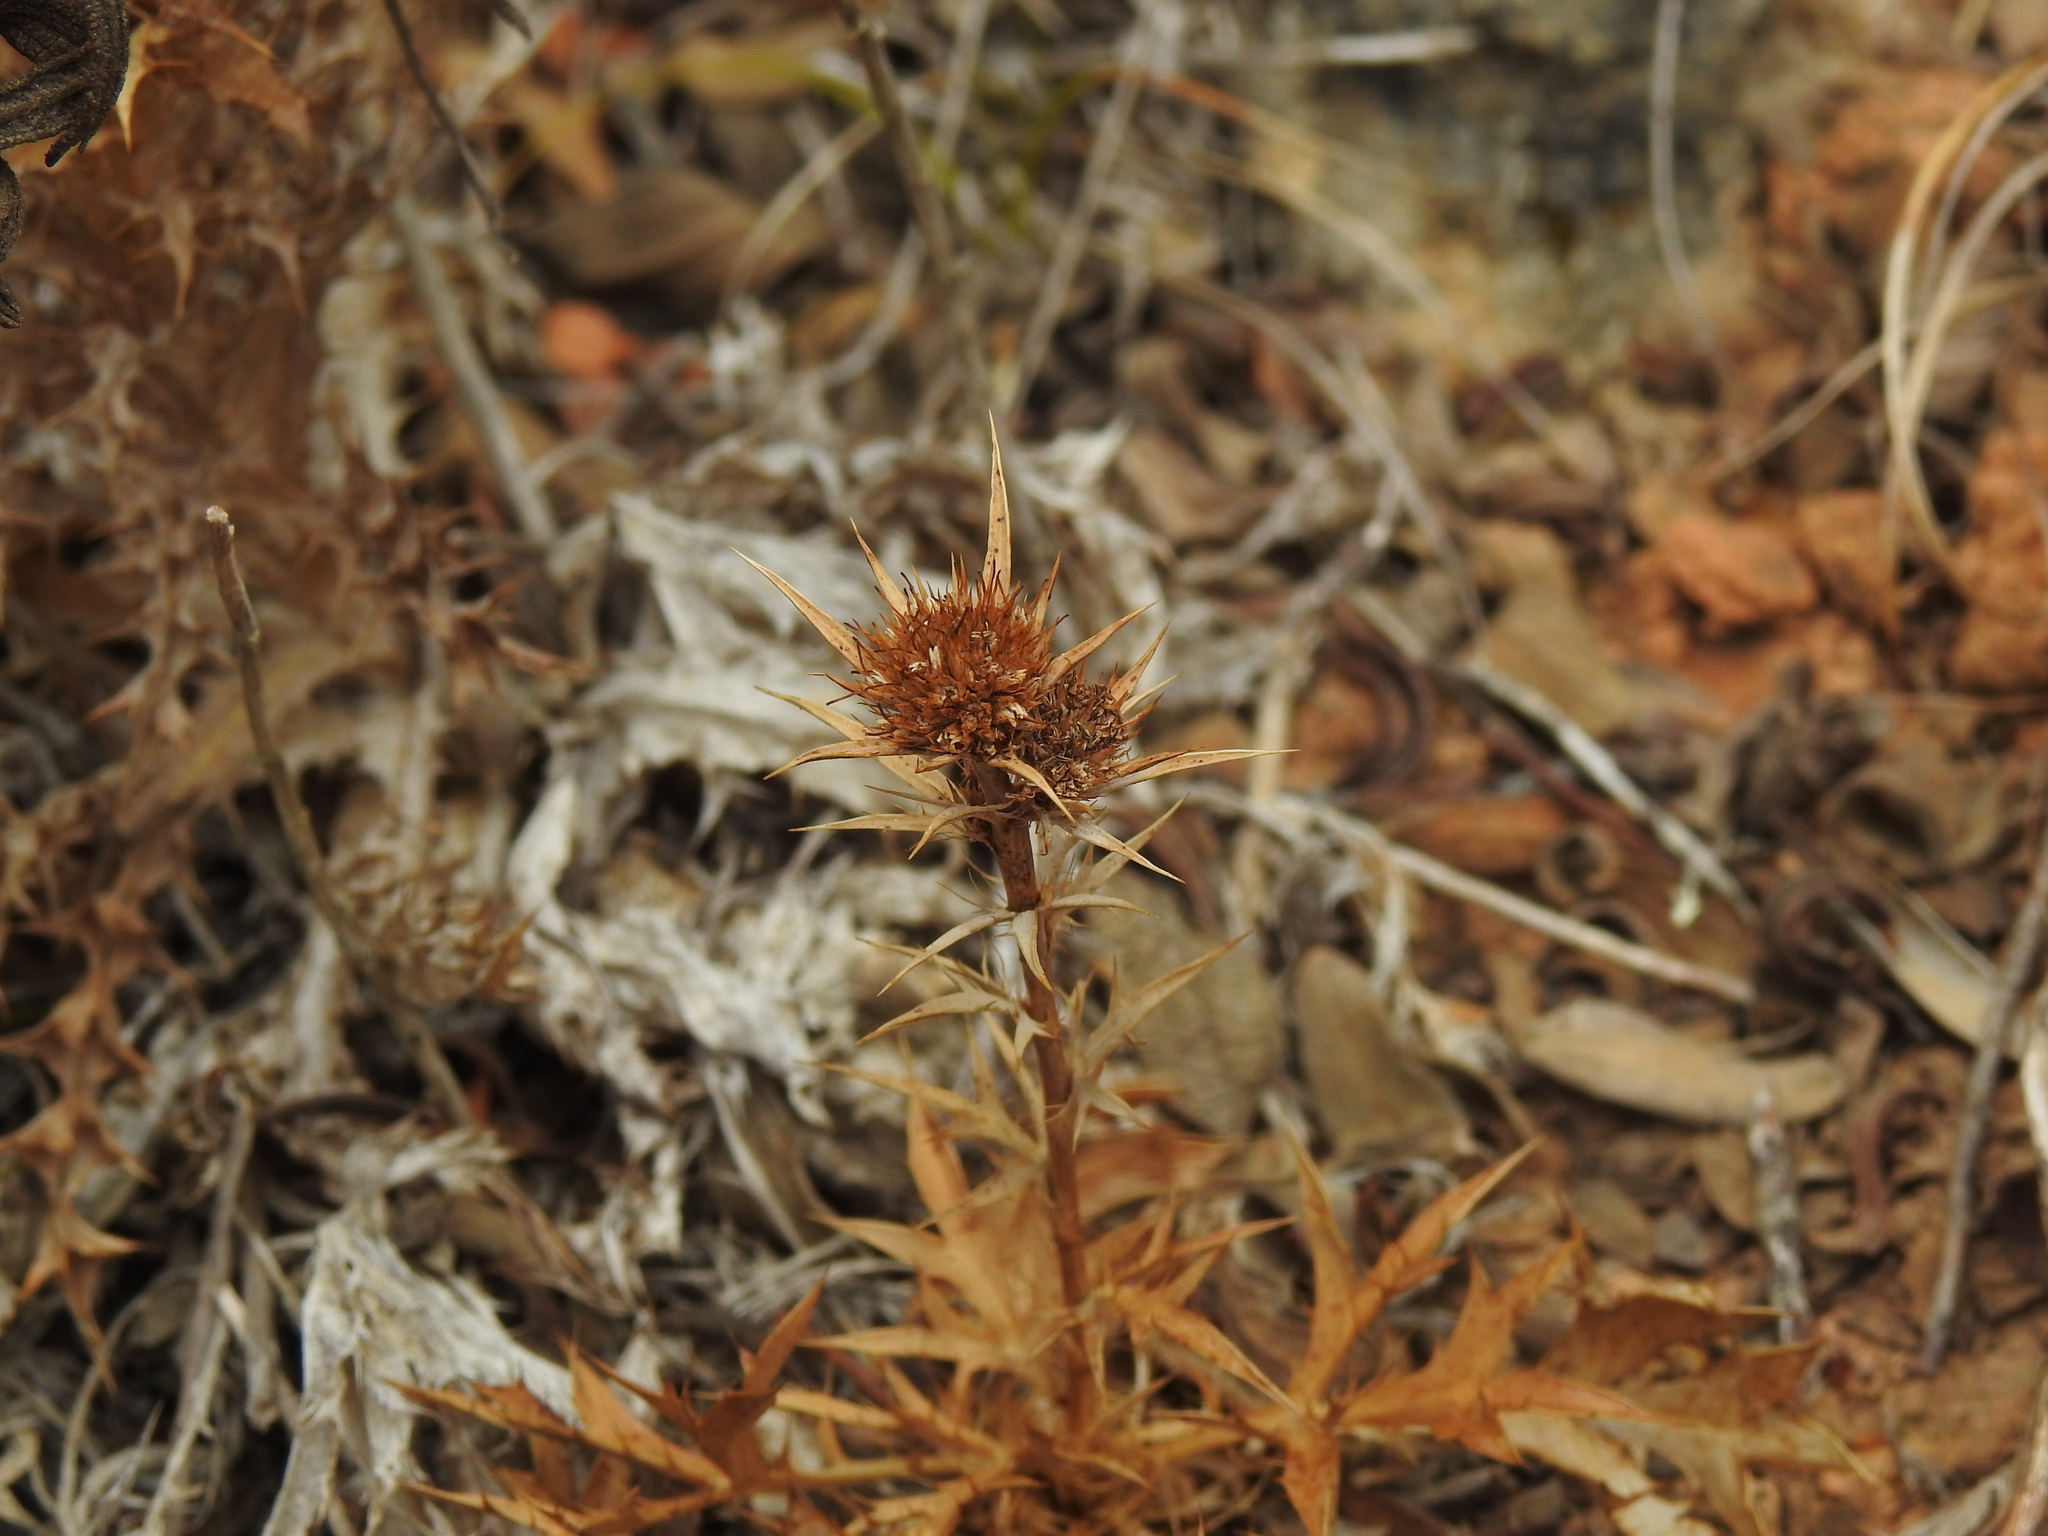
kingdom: Plantae
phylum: Tracheophyta
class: Magnoliopsida
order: Apiales
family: Apiaceae
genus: Eryngium
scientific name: Eryngium dilatatum
